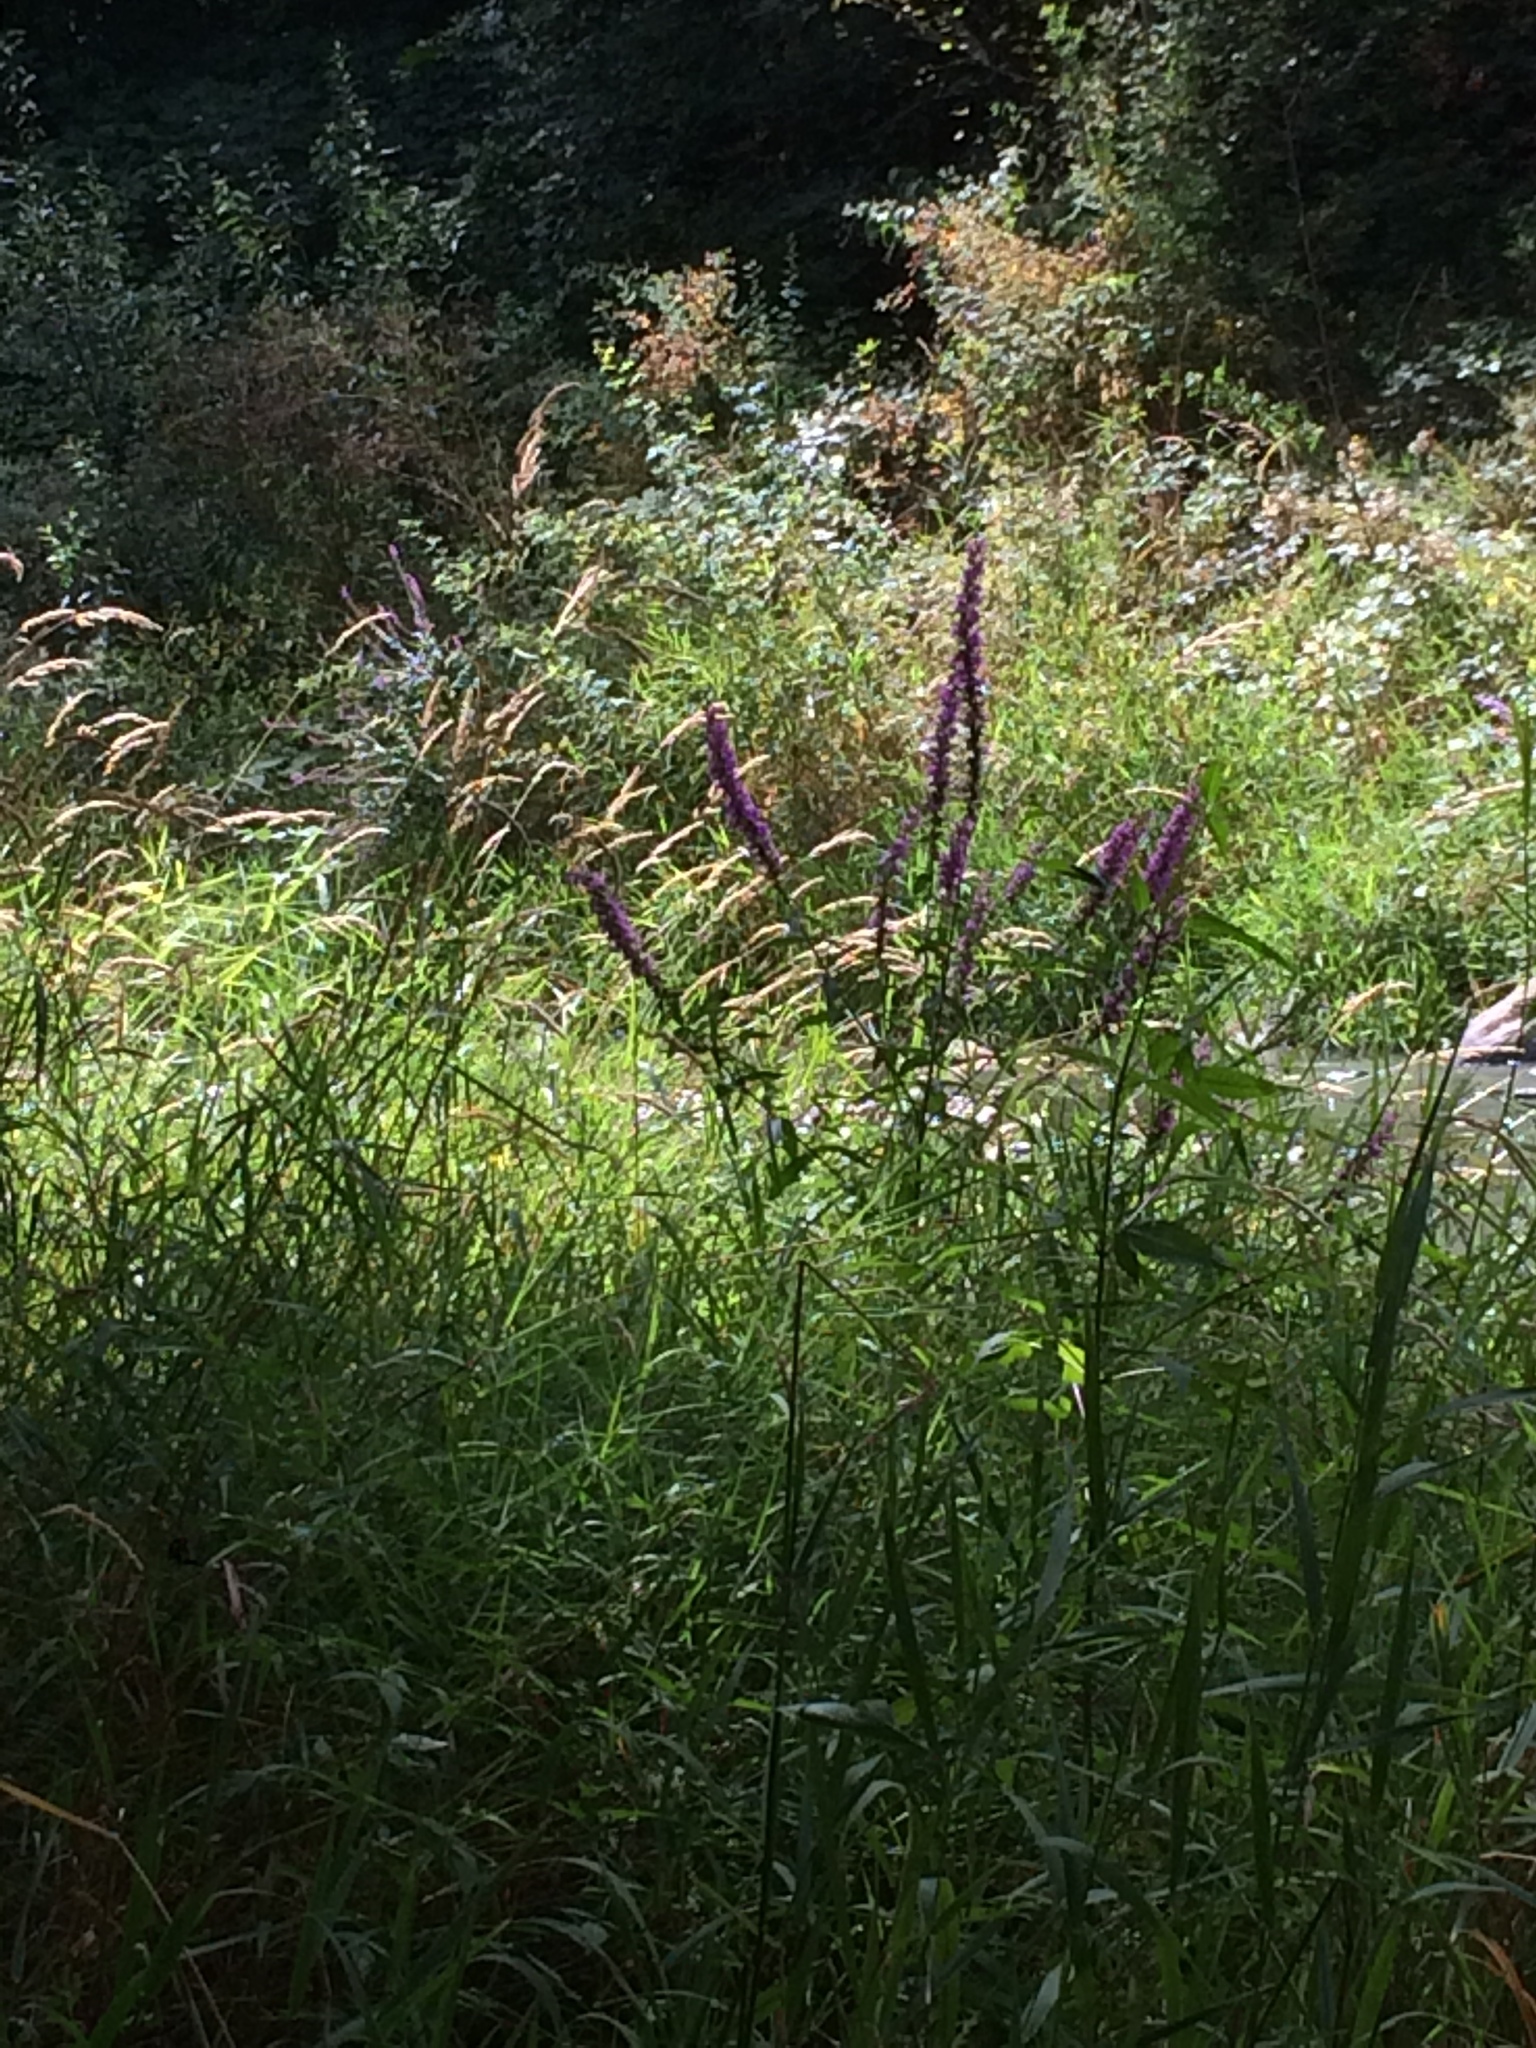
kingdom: Plantae
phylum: Tracheophyta
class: Magnoliopsida
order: Myrtales
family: Lythraceae
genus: Lythrum
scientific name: Lythrum salicaria
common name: Purple loosestrife
